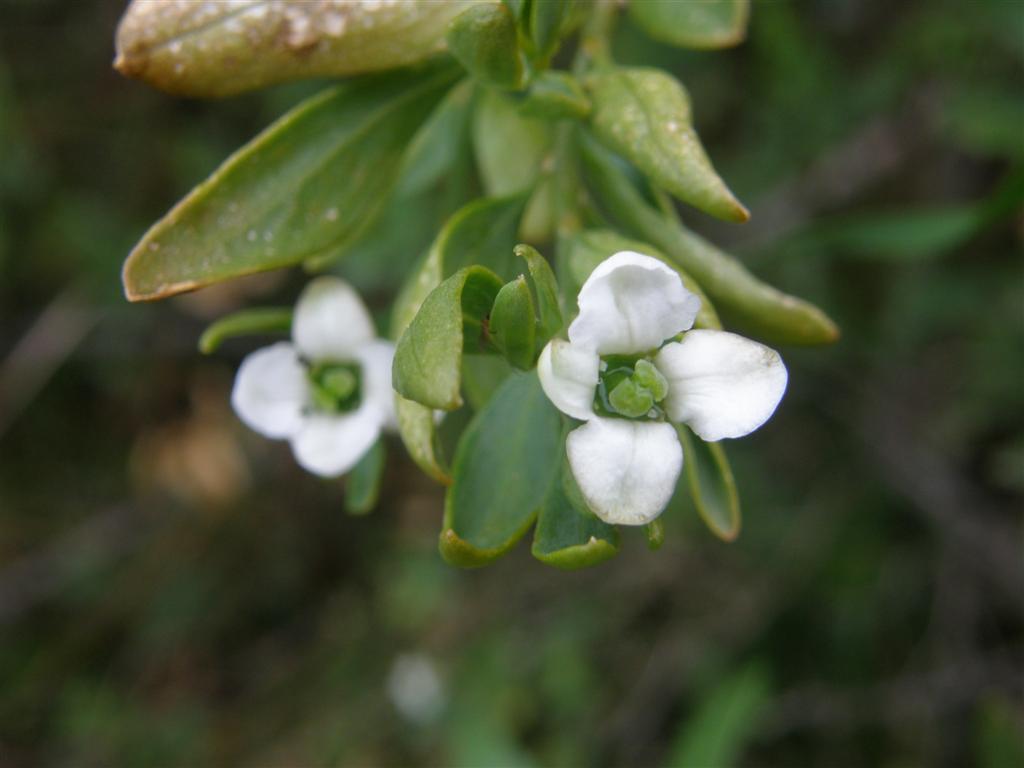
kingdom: Plantae
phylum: Tracheophyta
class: Magnoliopsida
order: Solanales
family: Montiniaceae
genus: Montinia
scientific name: Montinia caryophyllacea
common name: Wild clove-bush
